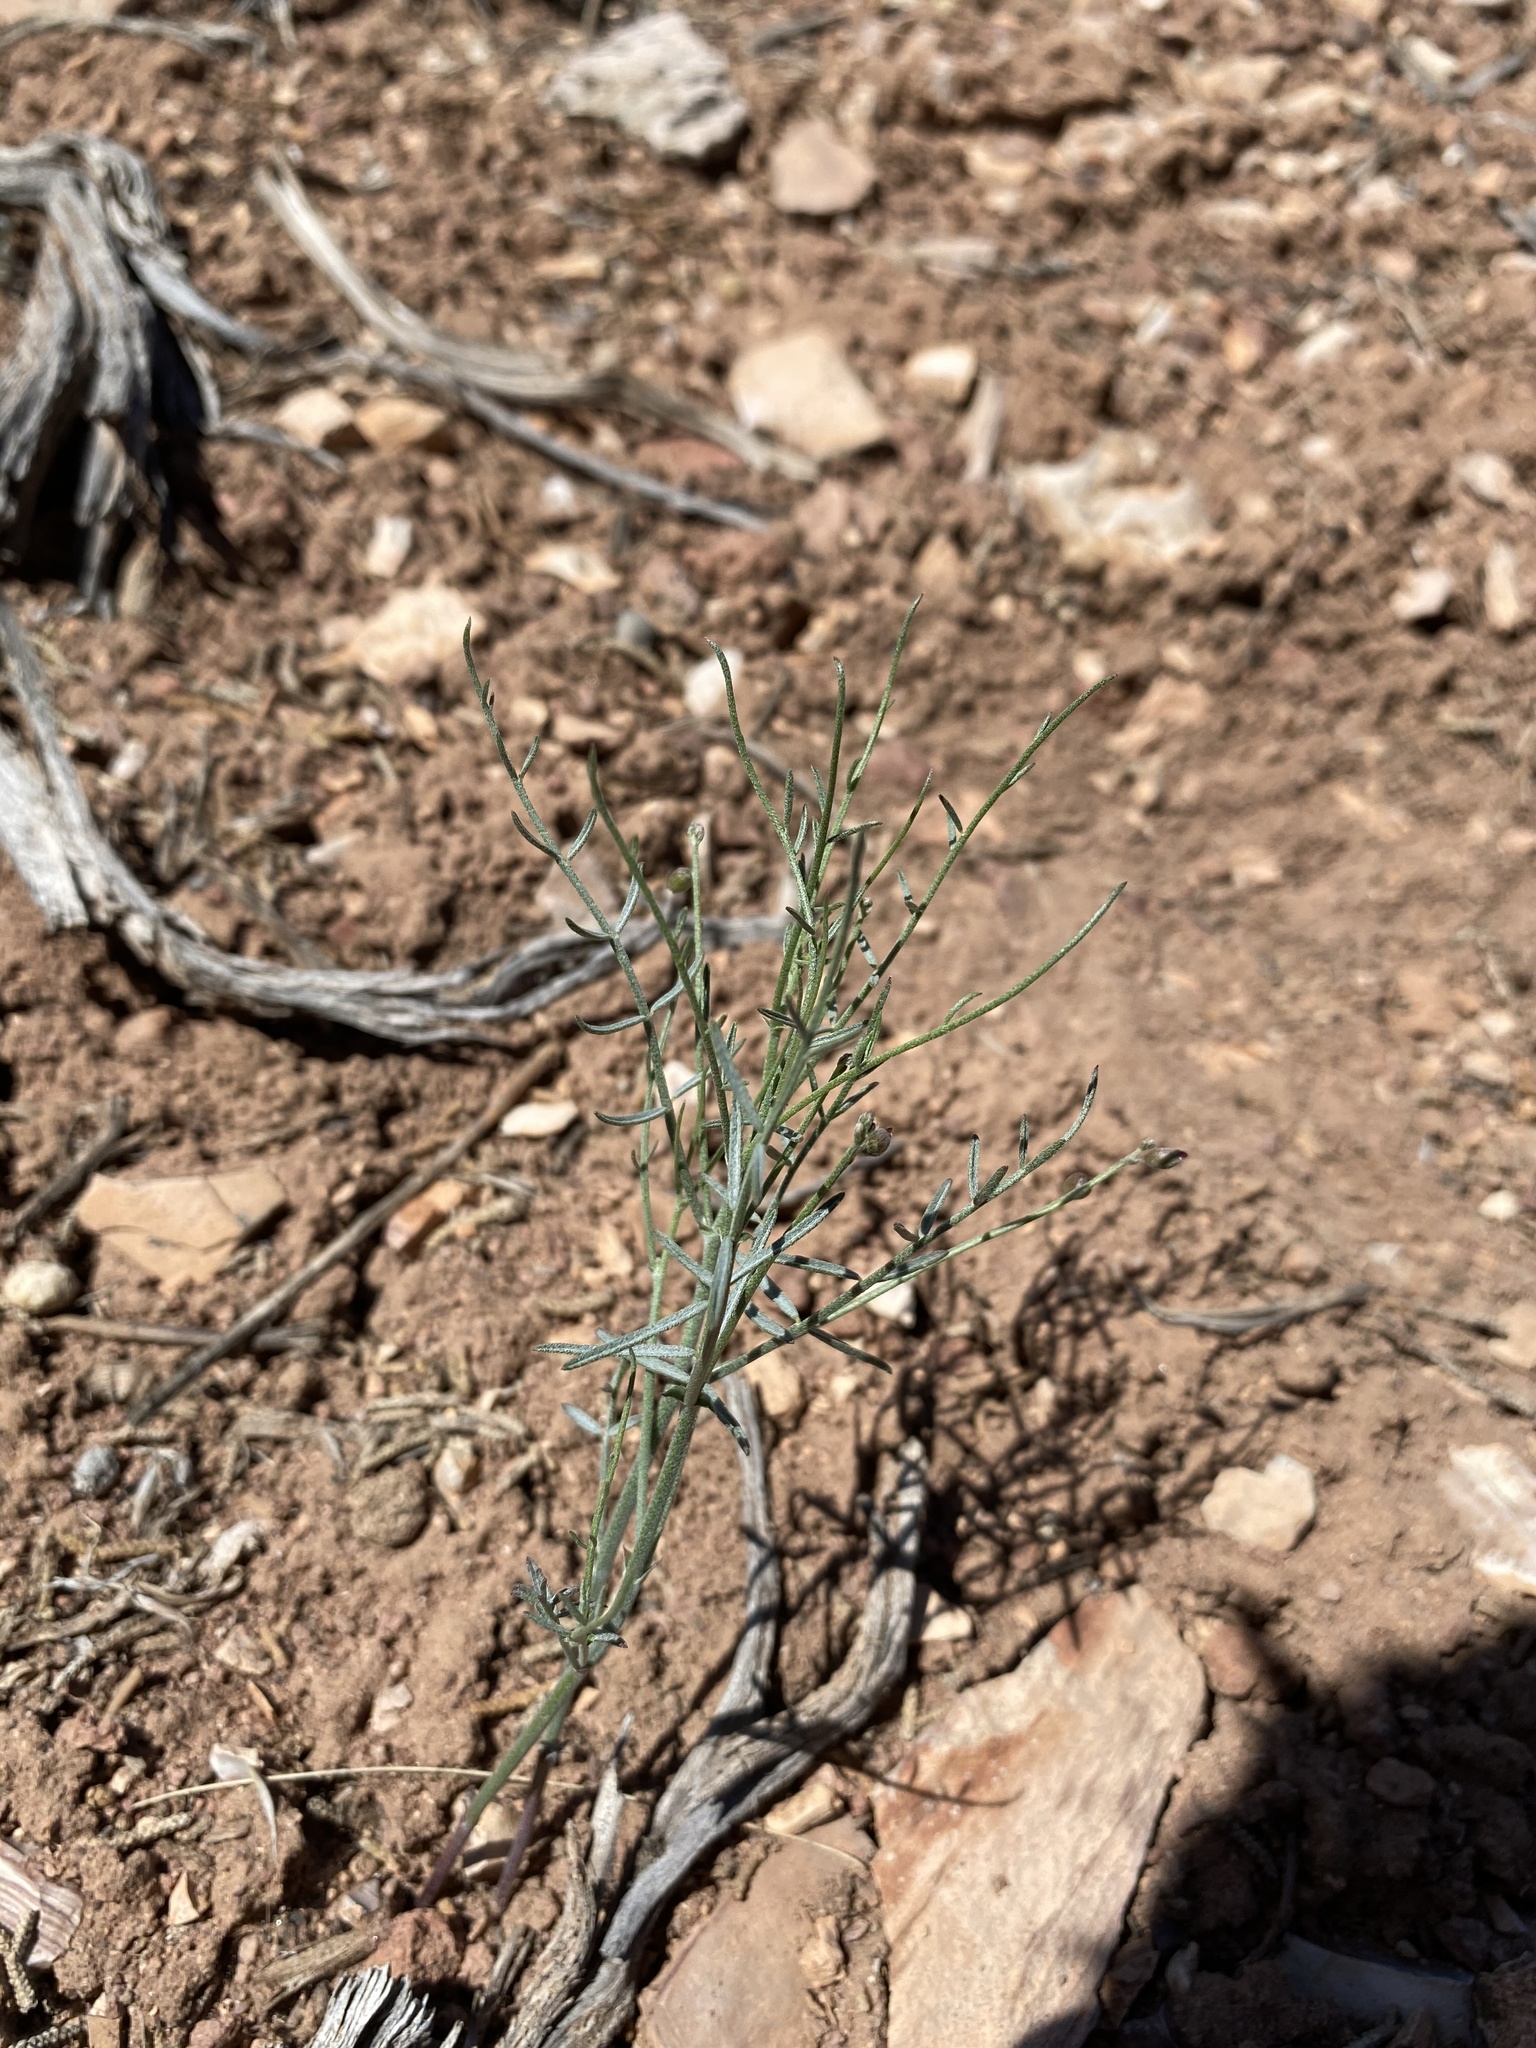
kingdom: Plantae
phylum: Tracheophyta
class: Magnoliopsida
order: Fabales
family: Fabaceae
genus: Astragalus
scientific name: Astragalus convallarius
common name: Lesser rushy milk-vetch
